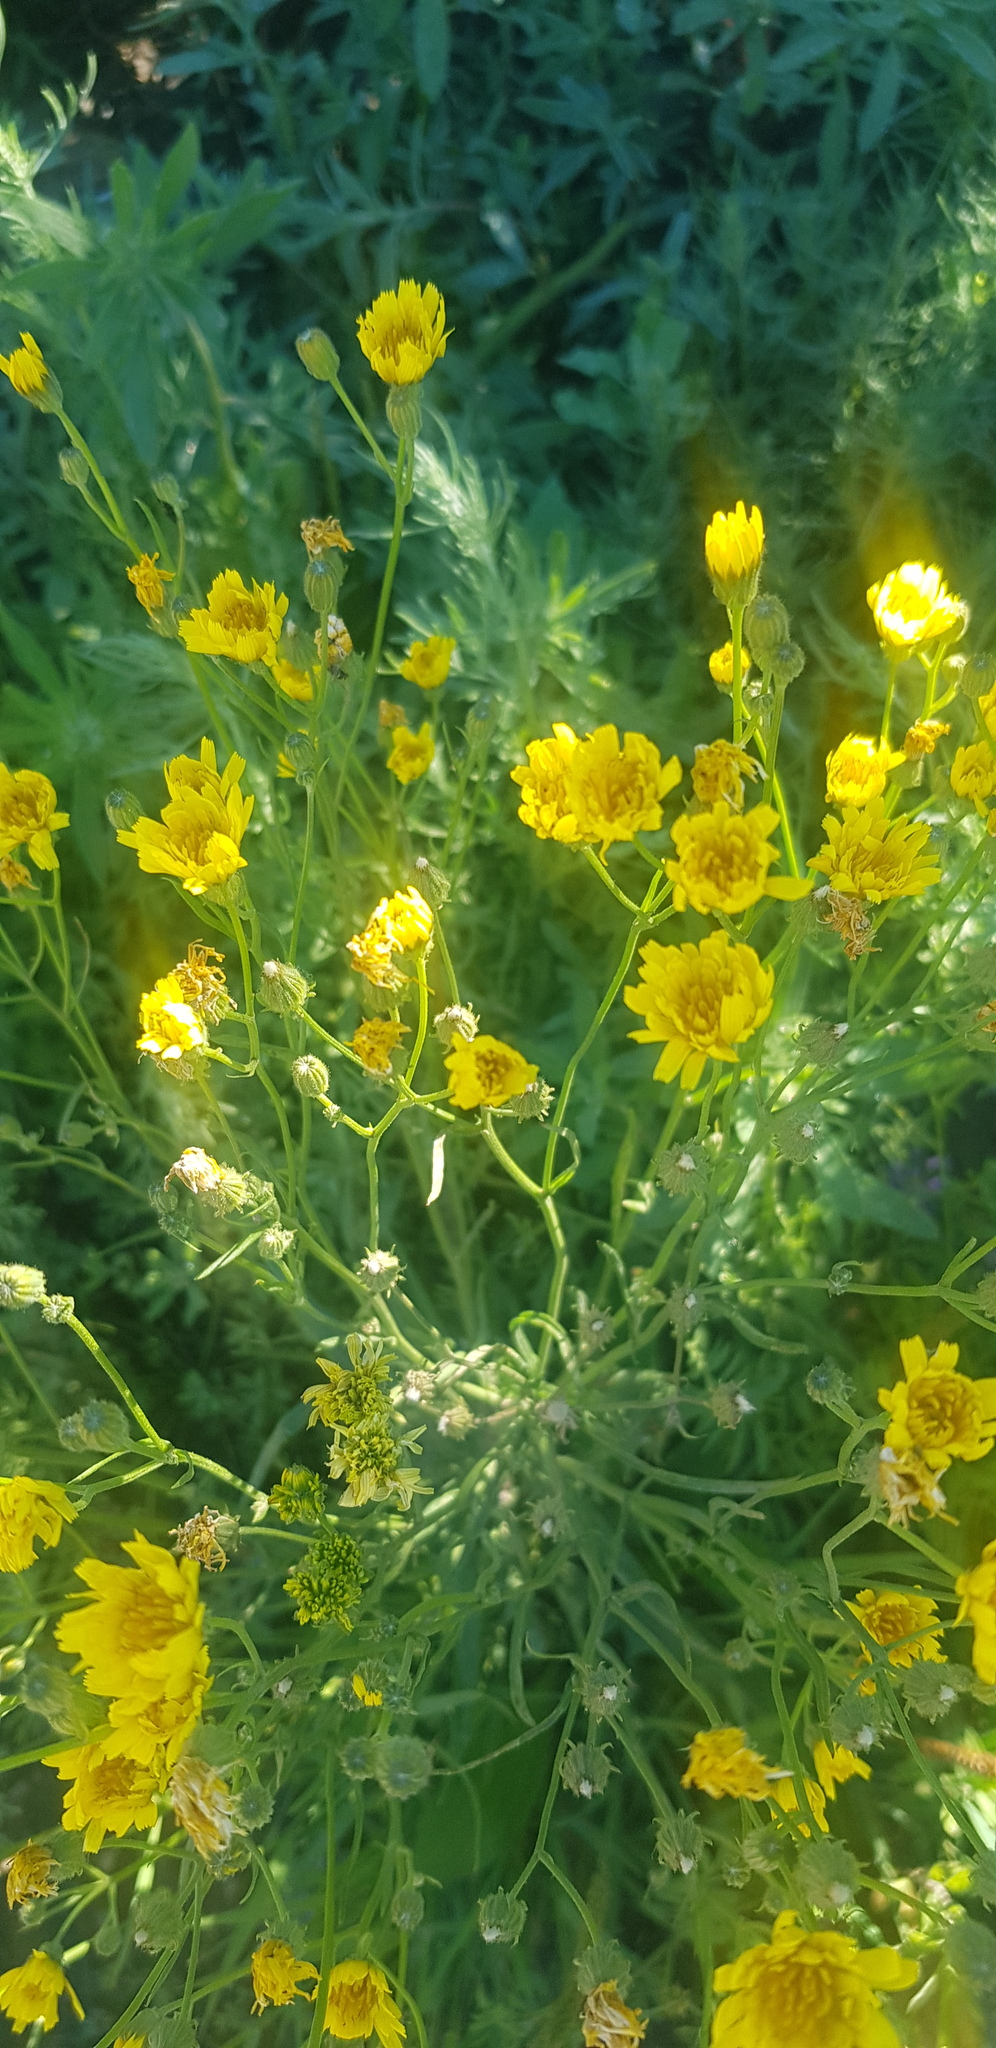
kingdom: Plantae
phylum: Tracheophyta
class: Magnoliopsida
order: Asterales
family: Asteraceae
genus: Crepis
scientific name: Crepis tectorum
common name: Narrow-leaved hawk's-beard
